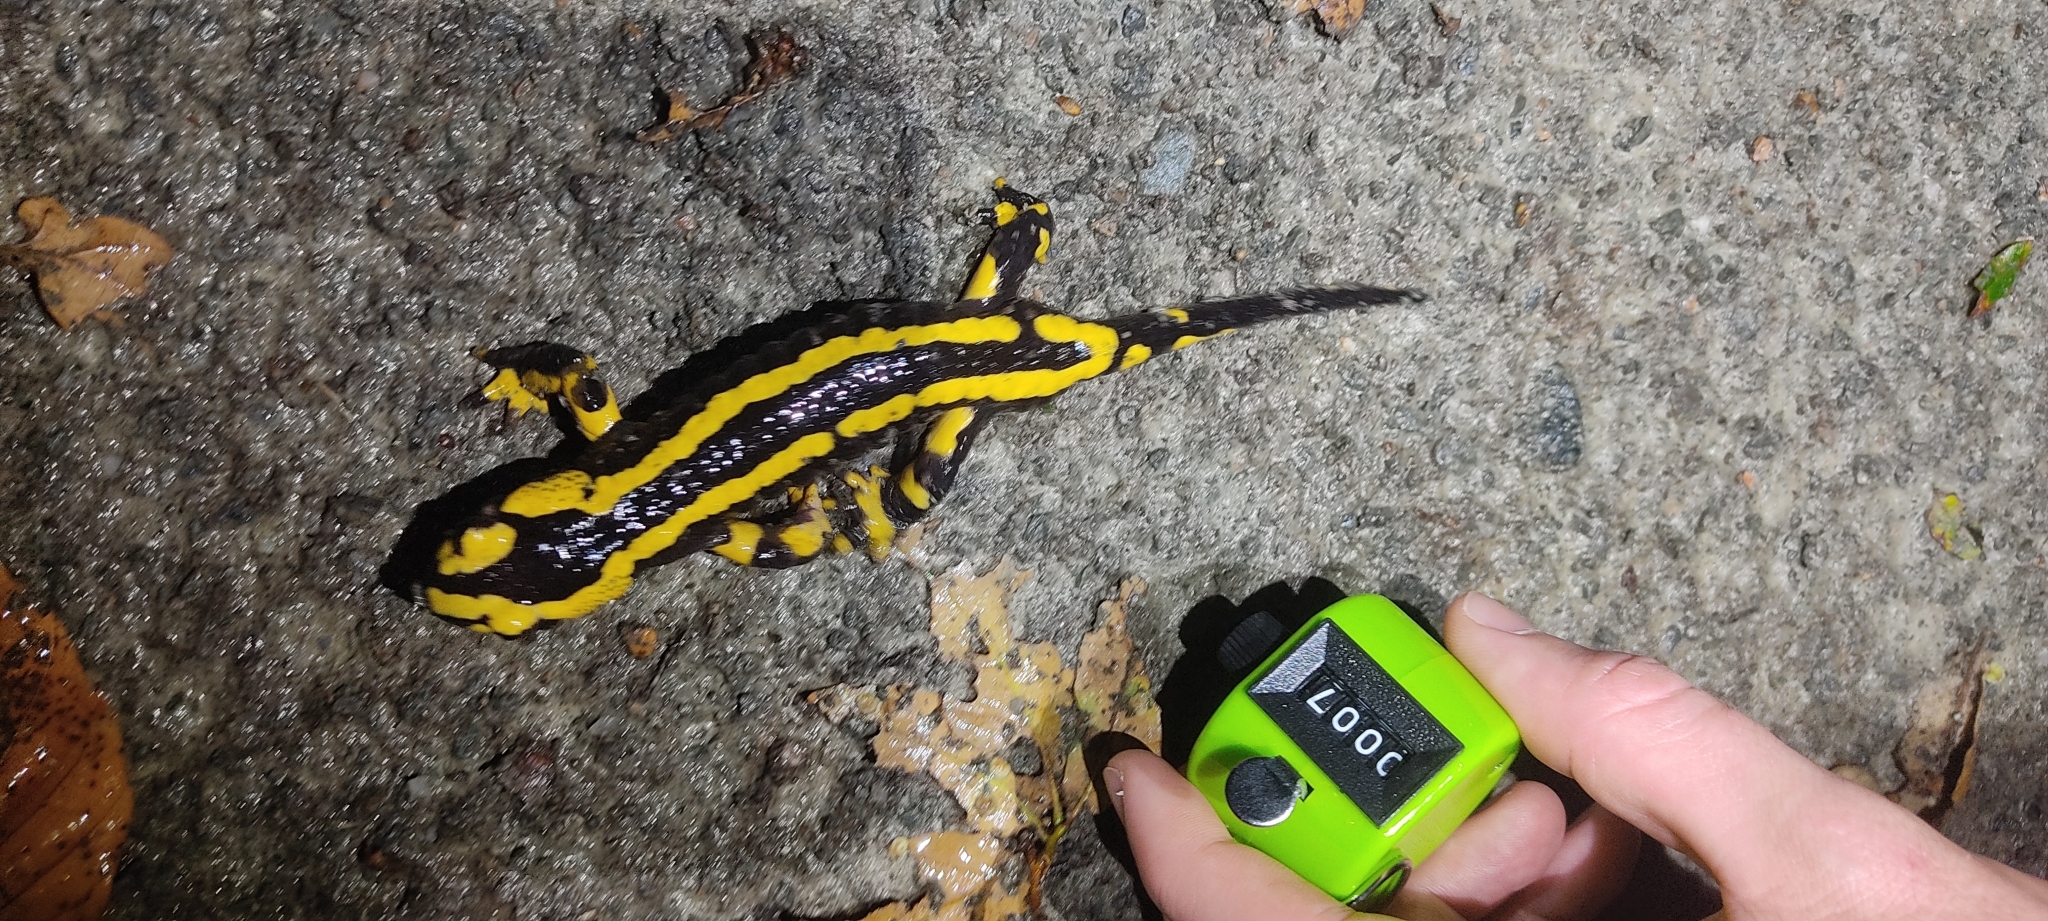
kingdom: Animalia
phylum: Chordata
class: Amphibia
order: Caudata
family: Salamandridae
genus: Salamandra
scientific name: Salamandra salamandra
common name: Fire salamander
